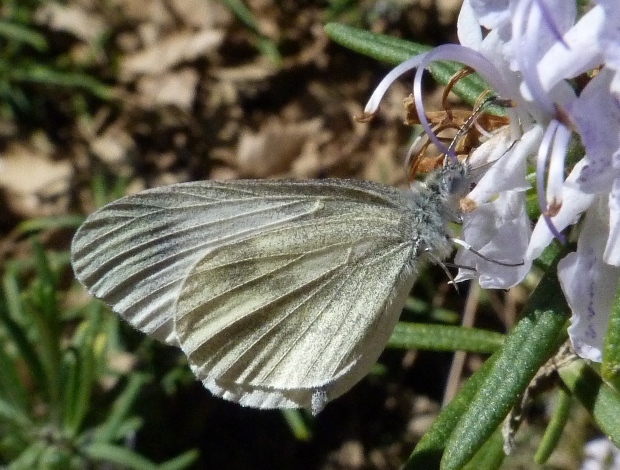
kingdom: Animalia
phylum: Arthropoda
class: Insecta
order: Lepidoptera
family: Pieridae
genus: Leptidea
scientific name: Leptidea sinapis
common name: Wood white
